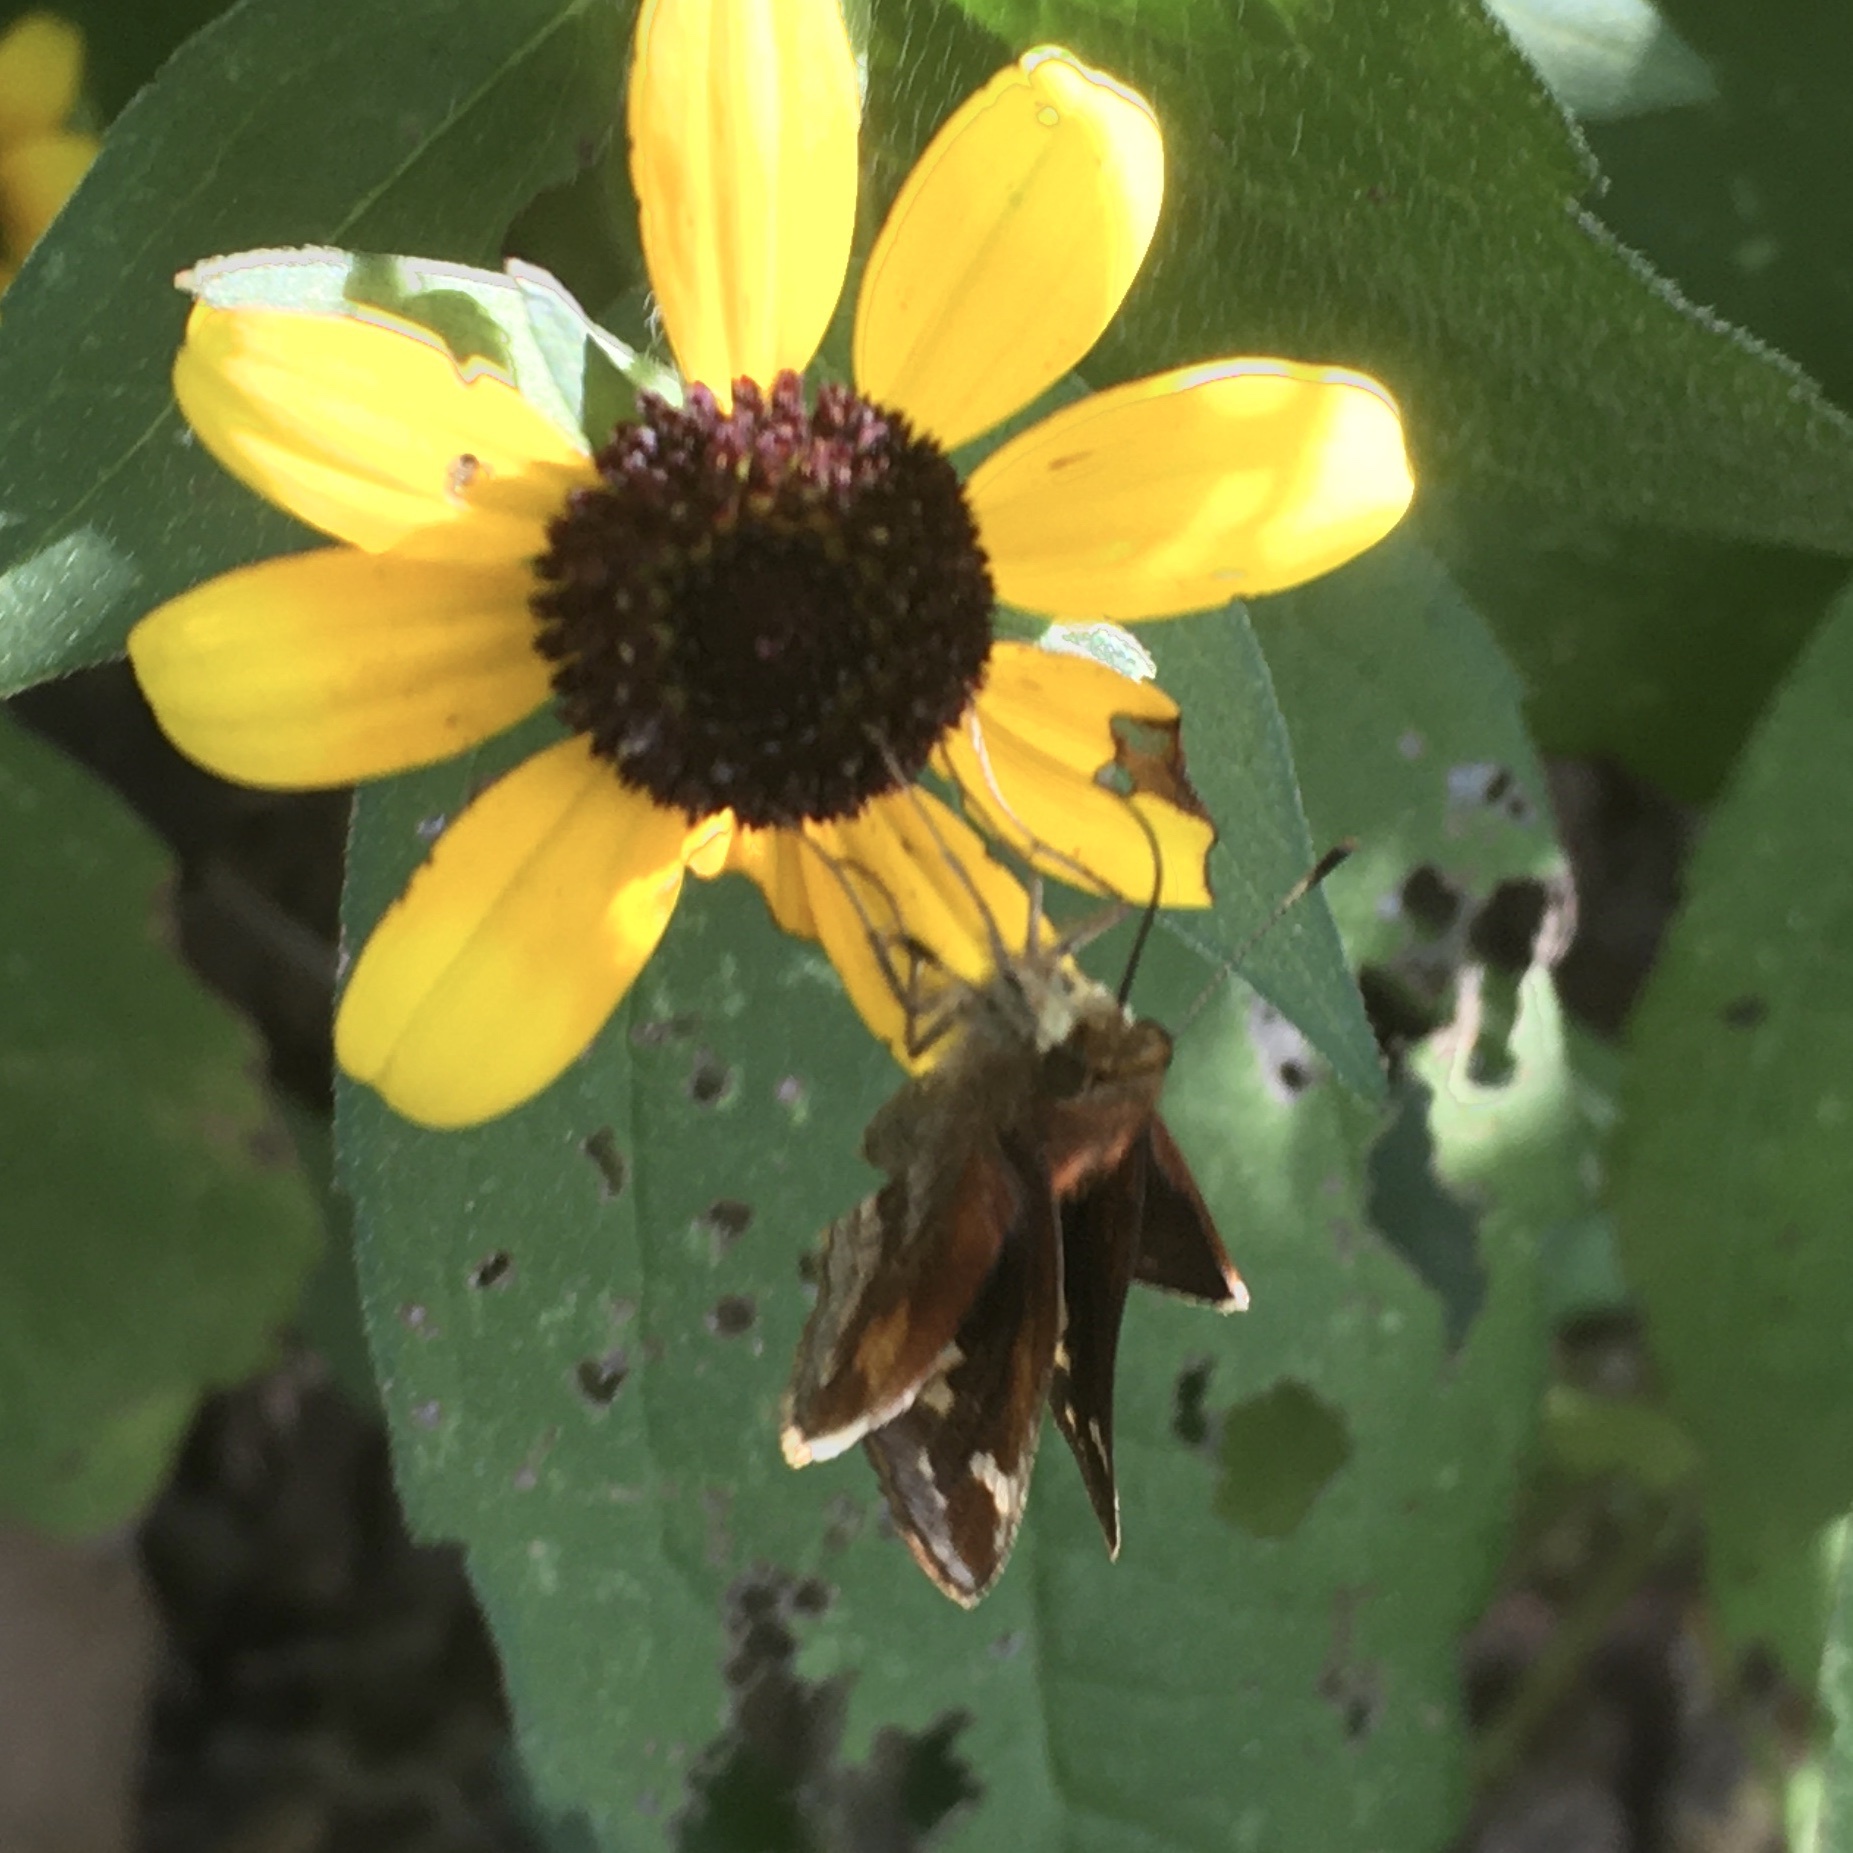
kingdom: Animalia
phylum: Arthropoda
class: Insecta
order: Lepidoptera
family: Hesperiidae
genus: Lon
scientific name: Lon zabulon
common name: Zabulon skipper
